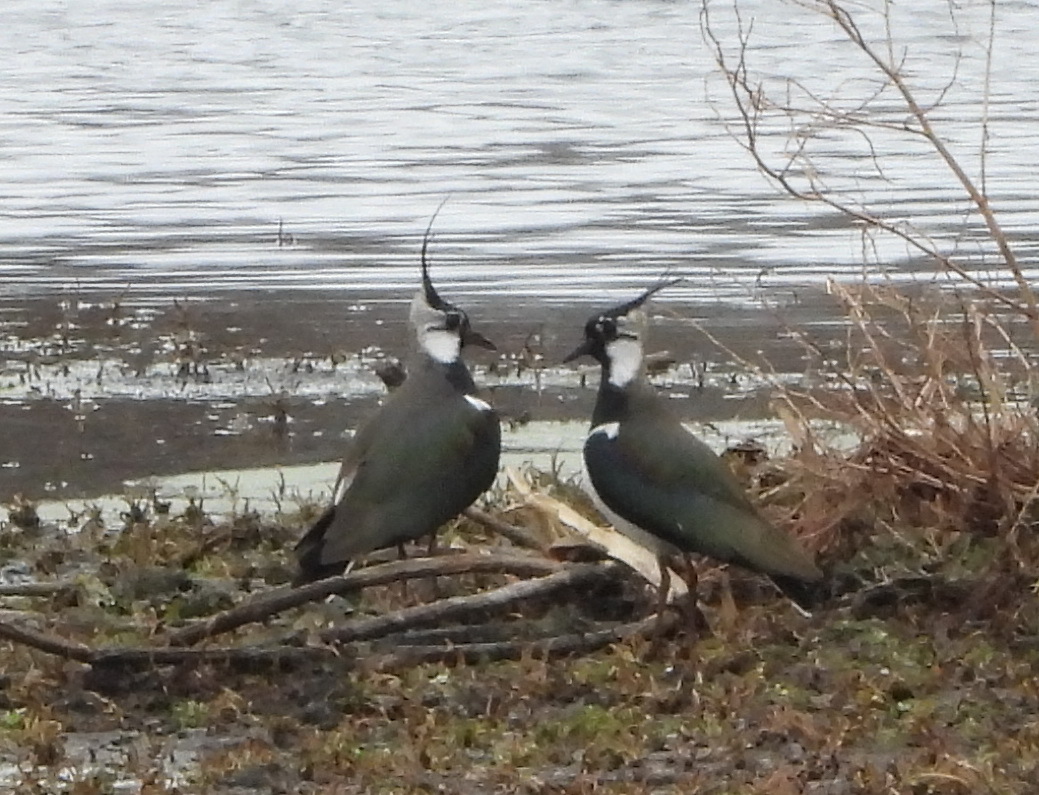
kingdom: Animalia
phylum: Chordata
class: Aves
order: Charadriiformes
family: Charadriidae
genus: Vanellus
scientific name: Vanellus vanellus
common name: Northern lapwing
